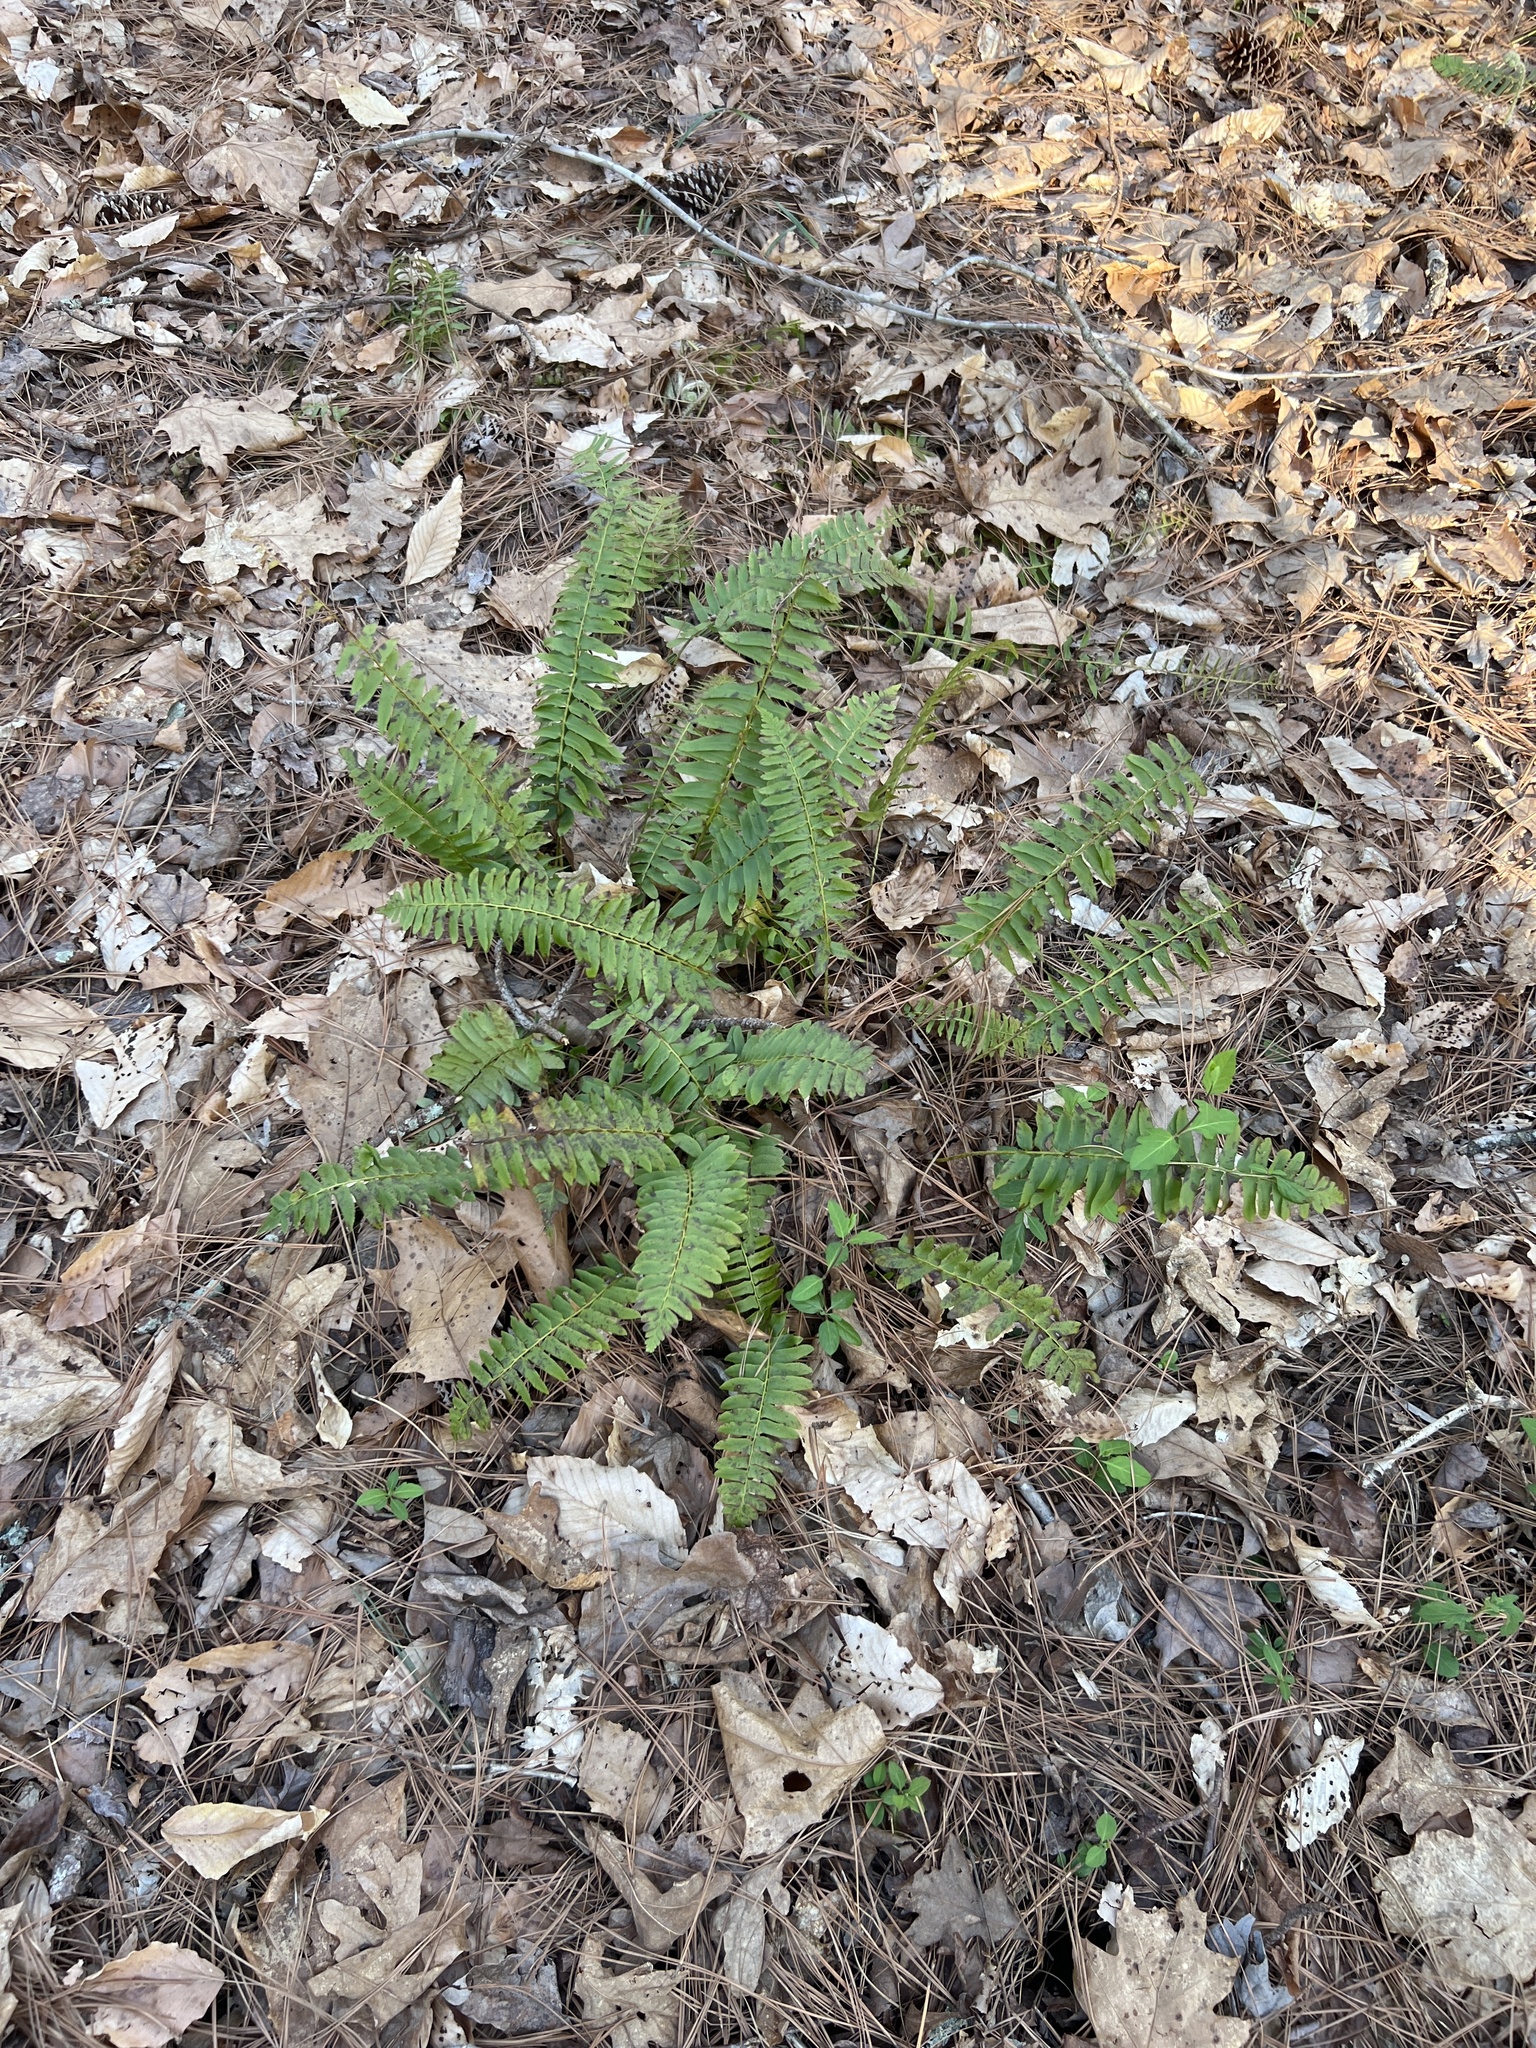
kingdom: Plantae
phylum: Tracheophyta
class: Polypodiopsida
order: Polypodiales
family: Dryopteridaceae
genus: Polystichum
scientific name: Polystichum acrostichoides
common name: Christmas fern
